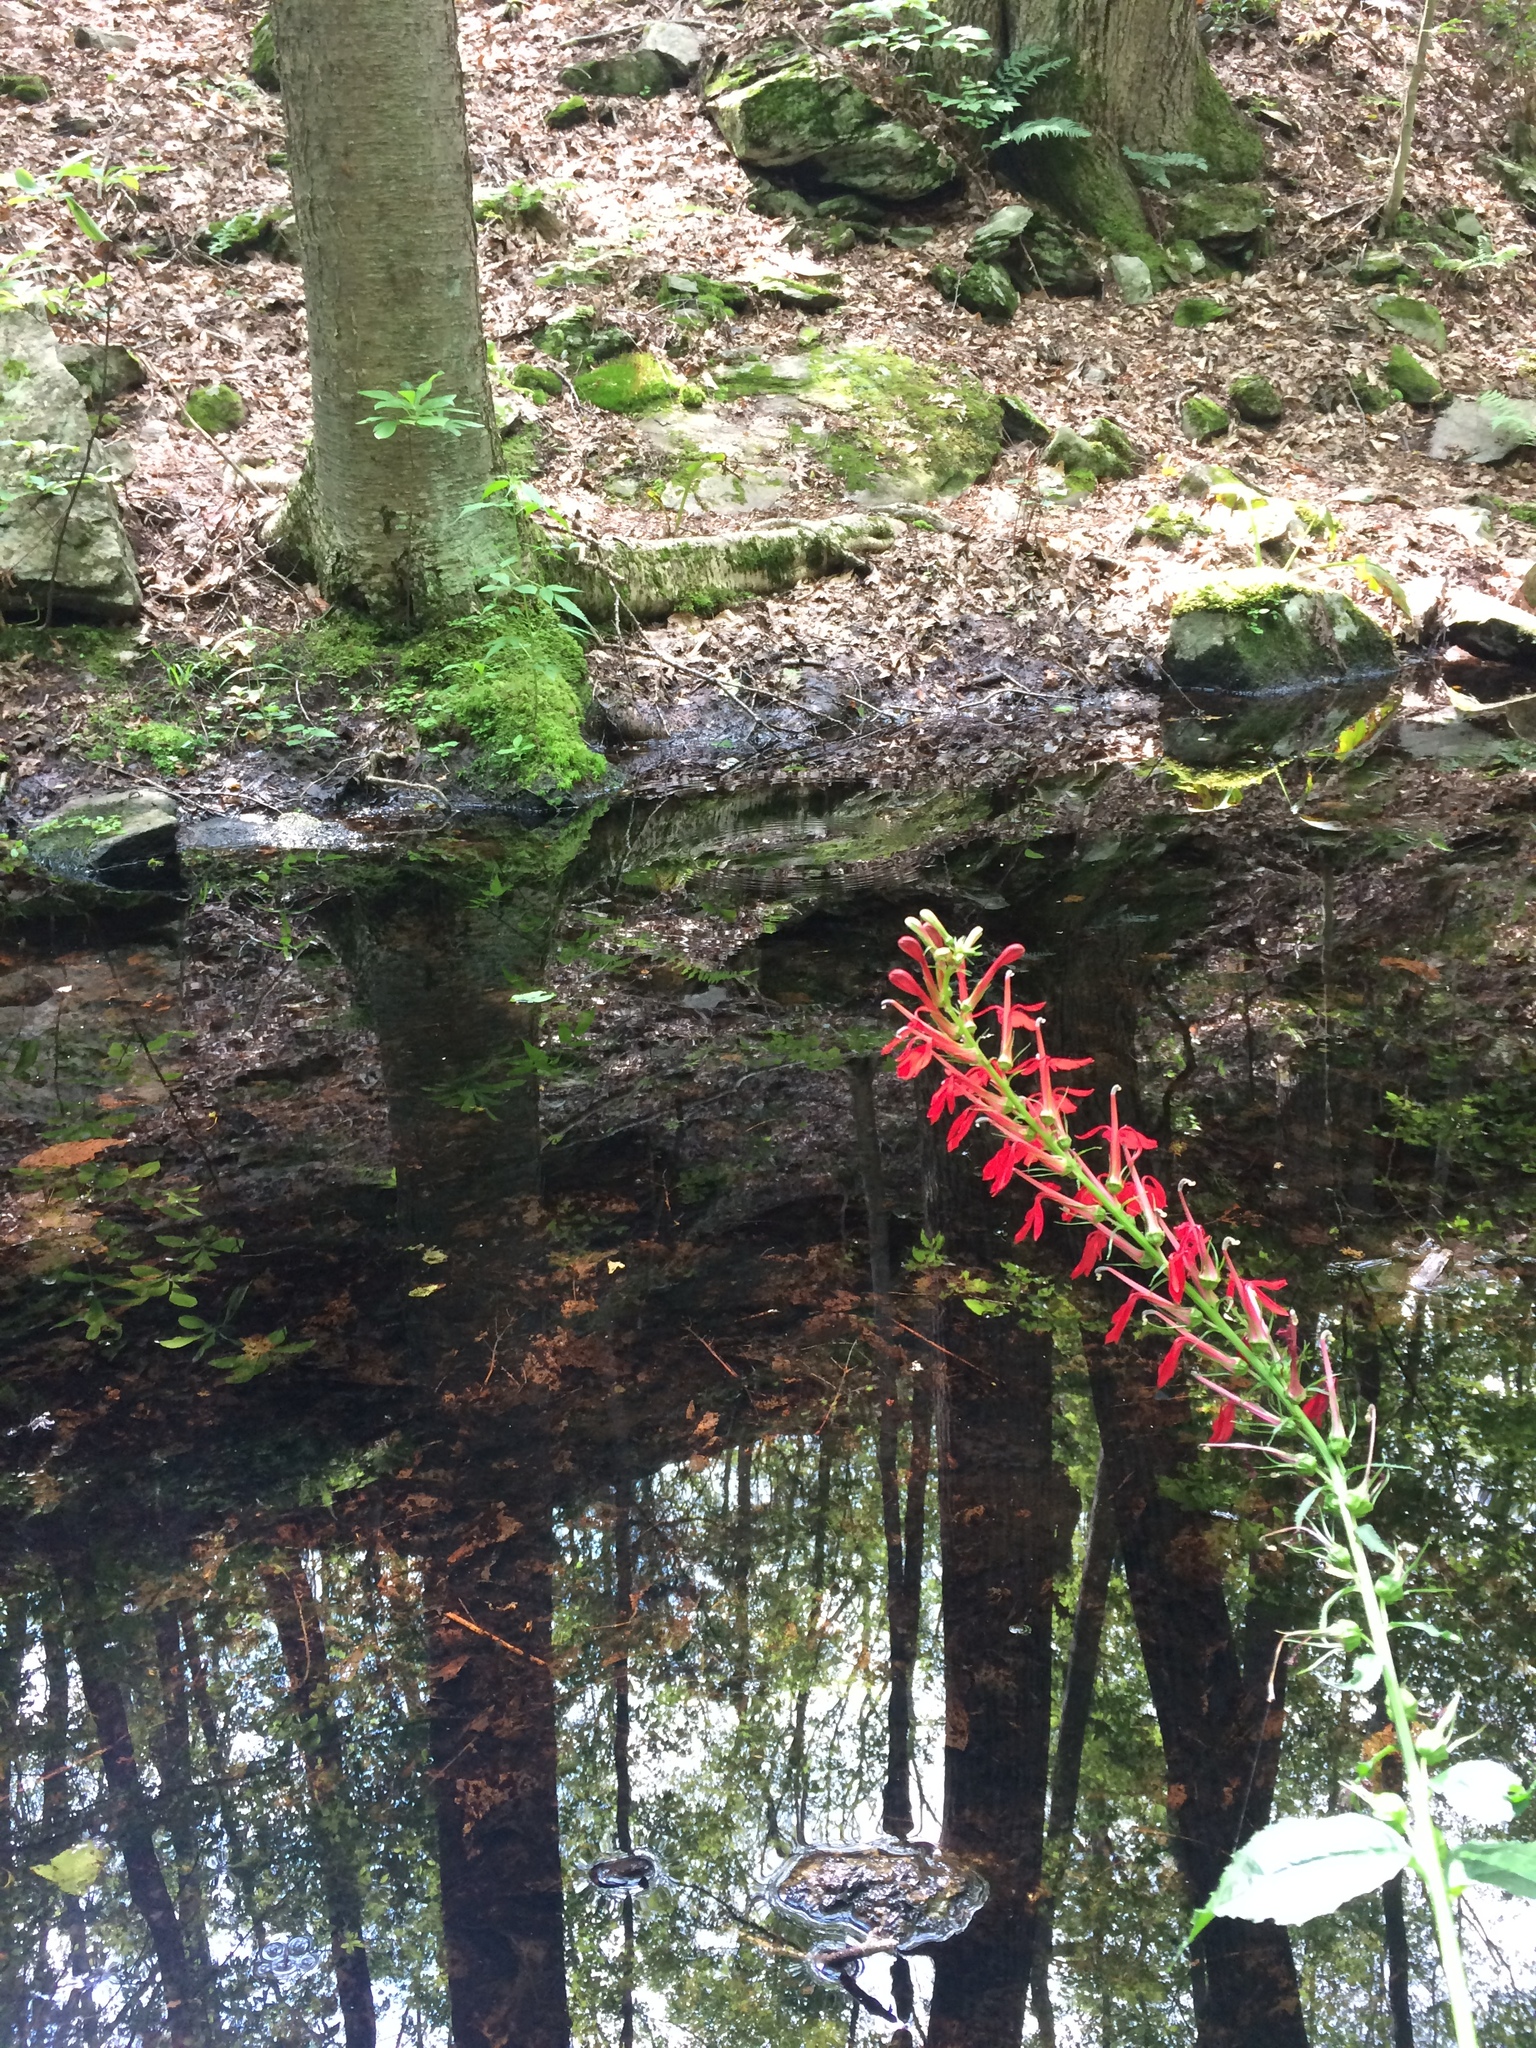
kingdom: Plantae
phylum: Tracheophyta
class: Magnoliopsida
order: Asterales
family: Campanulaceae
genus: Lobelia
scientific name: Lobelia cardinalis
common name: Cardinal flower
